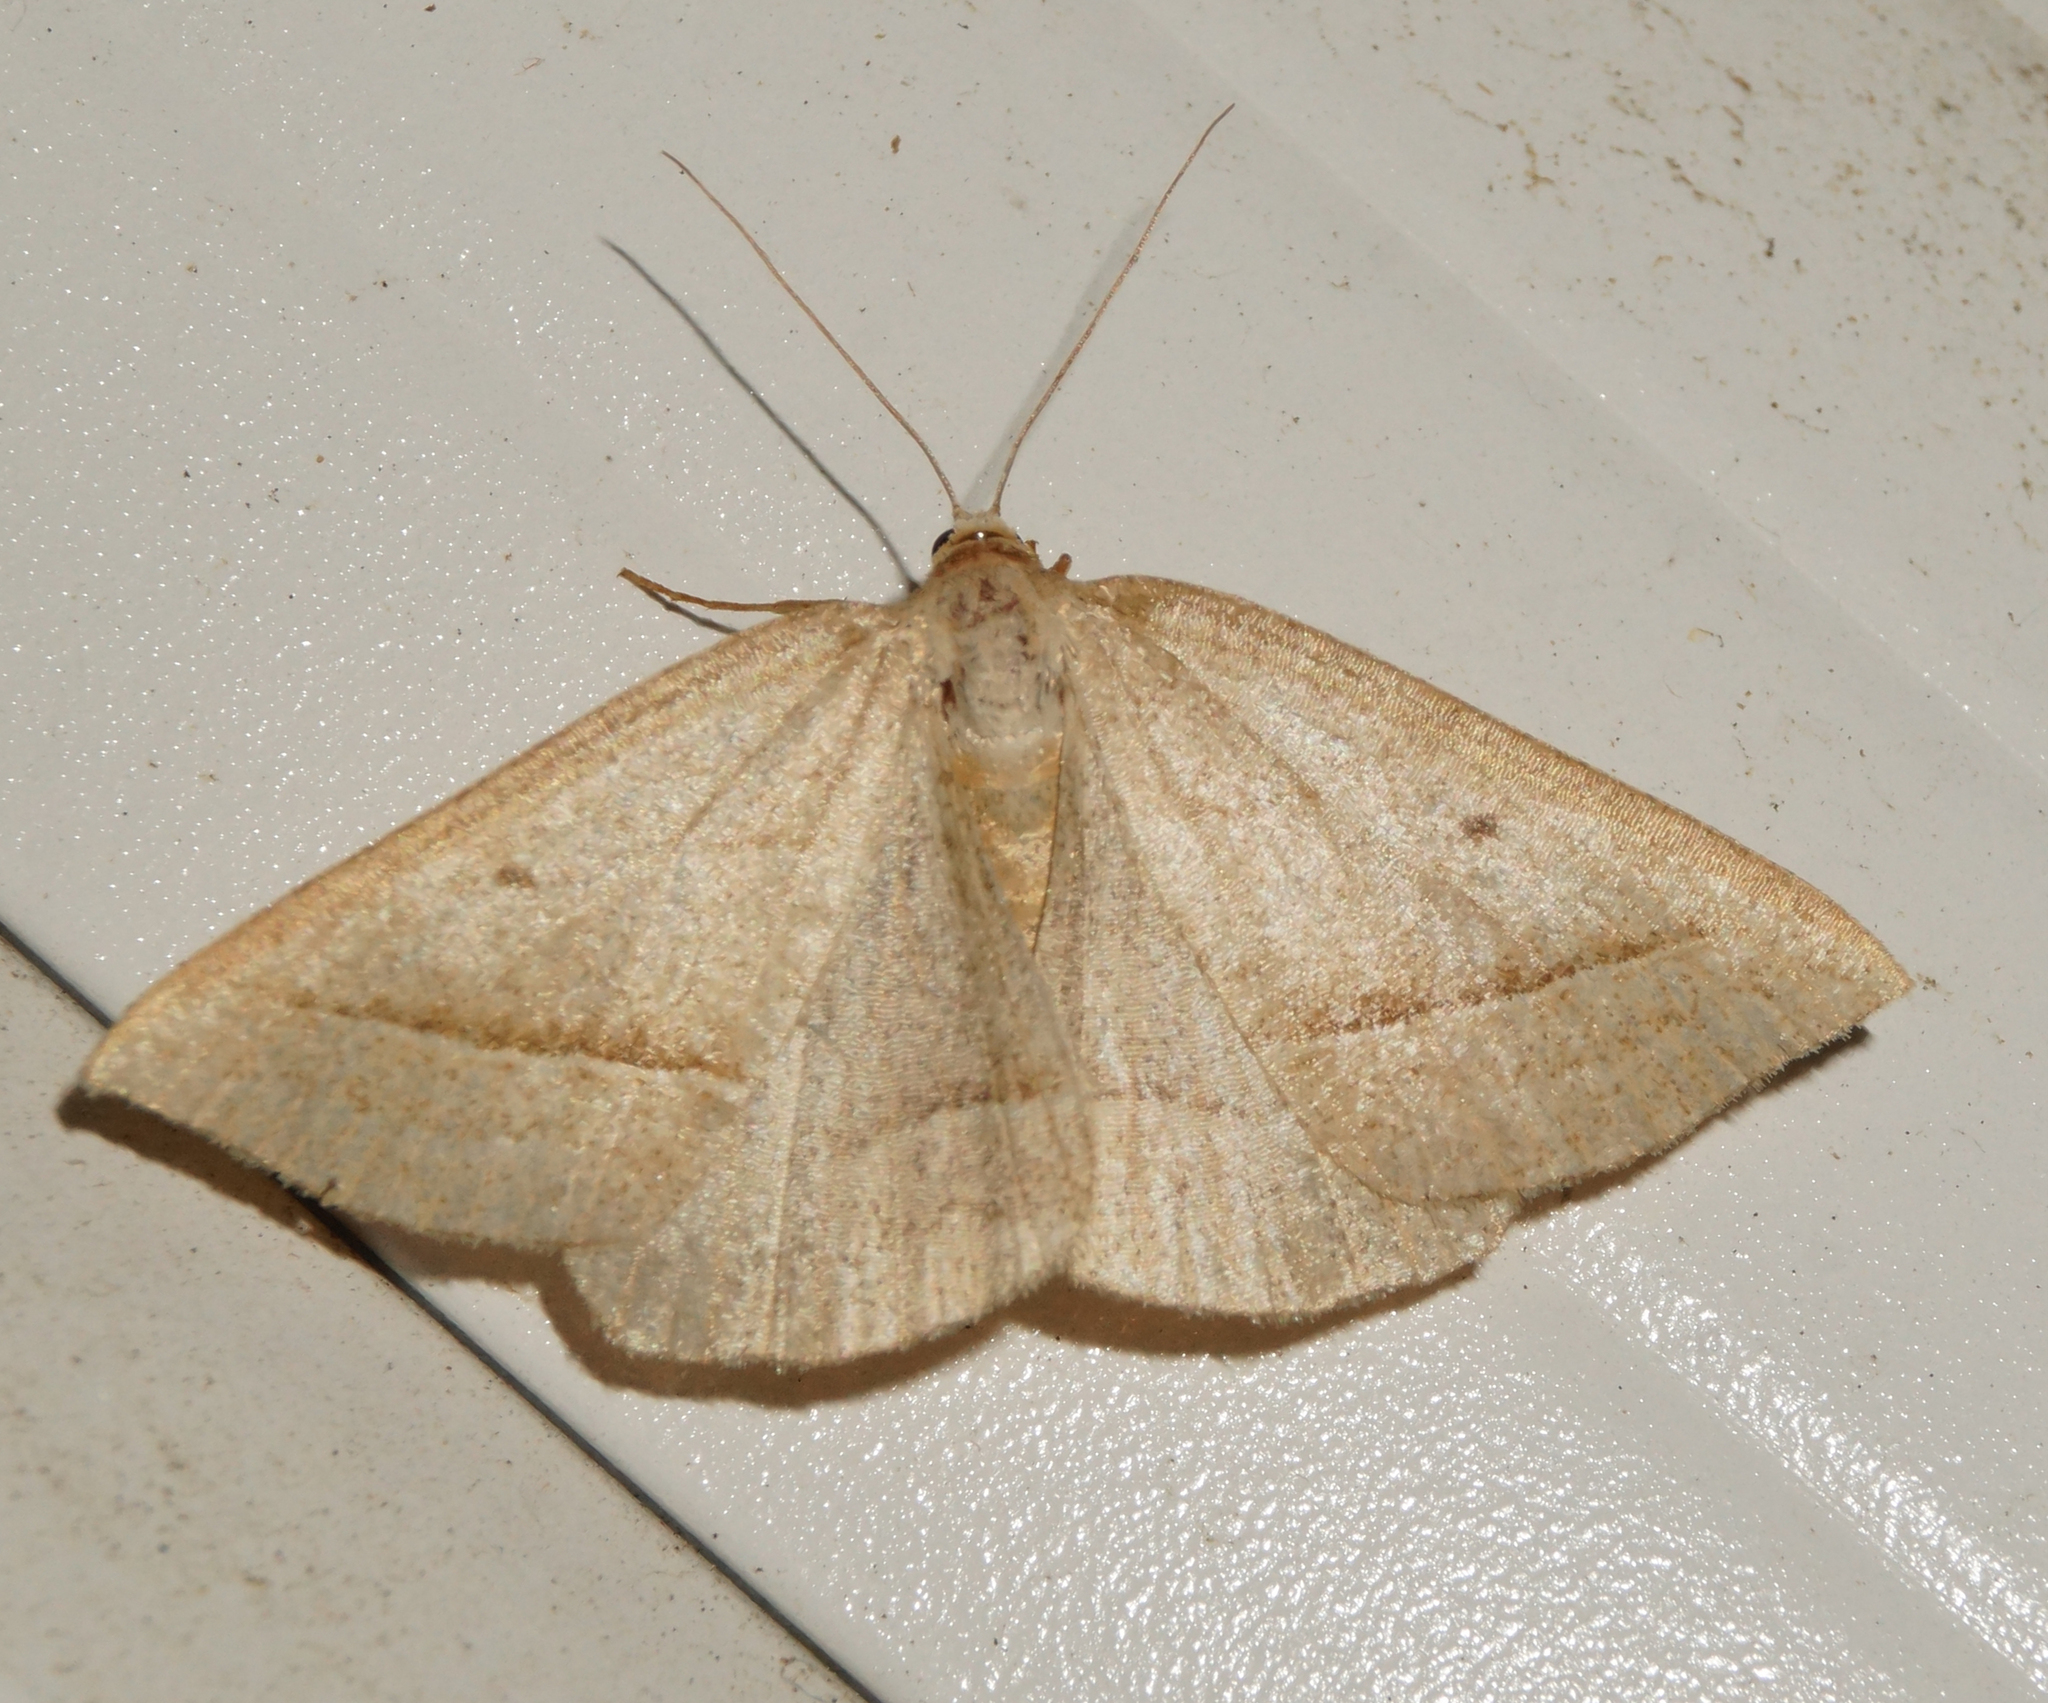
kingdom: Animalia
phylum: Arthropoda
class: Insecta
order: Lepidoptera
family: Pterophoridae
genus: Pterophorus
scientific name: Pterophorus Petrophora chlorosata
